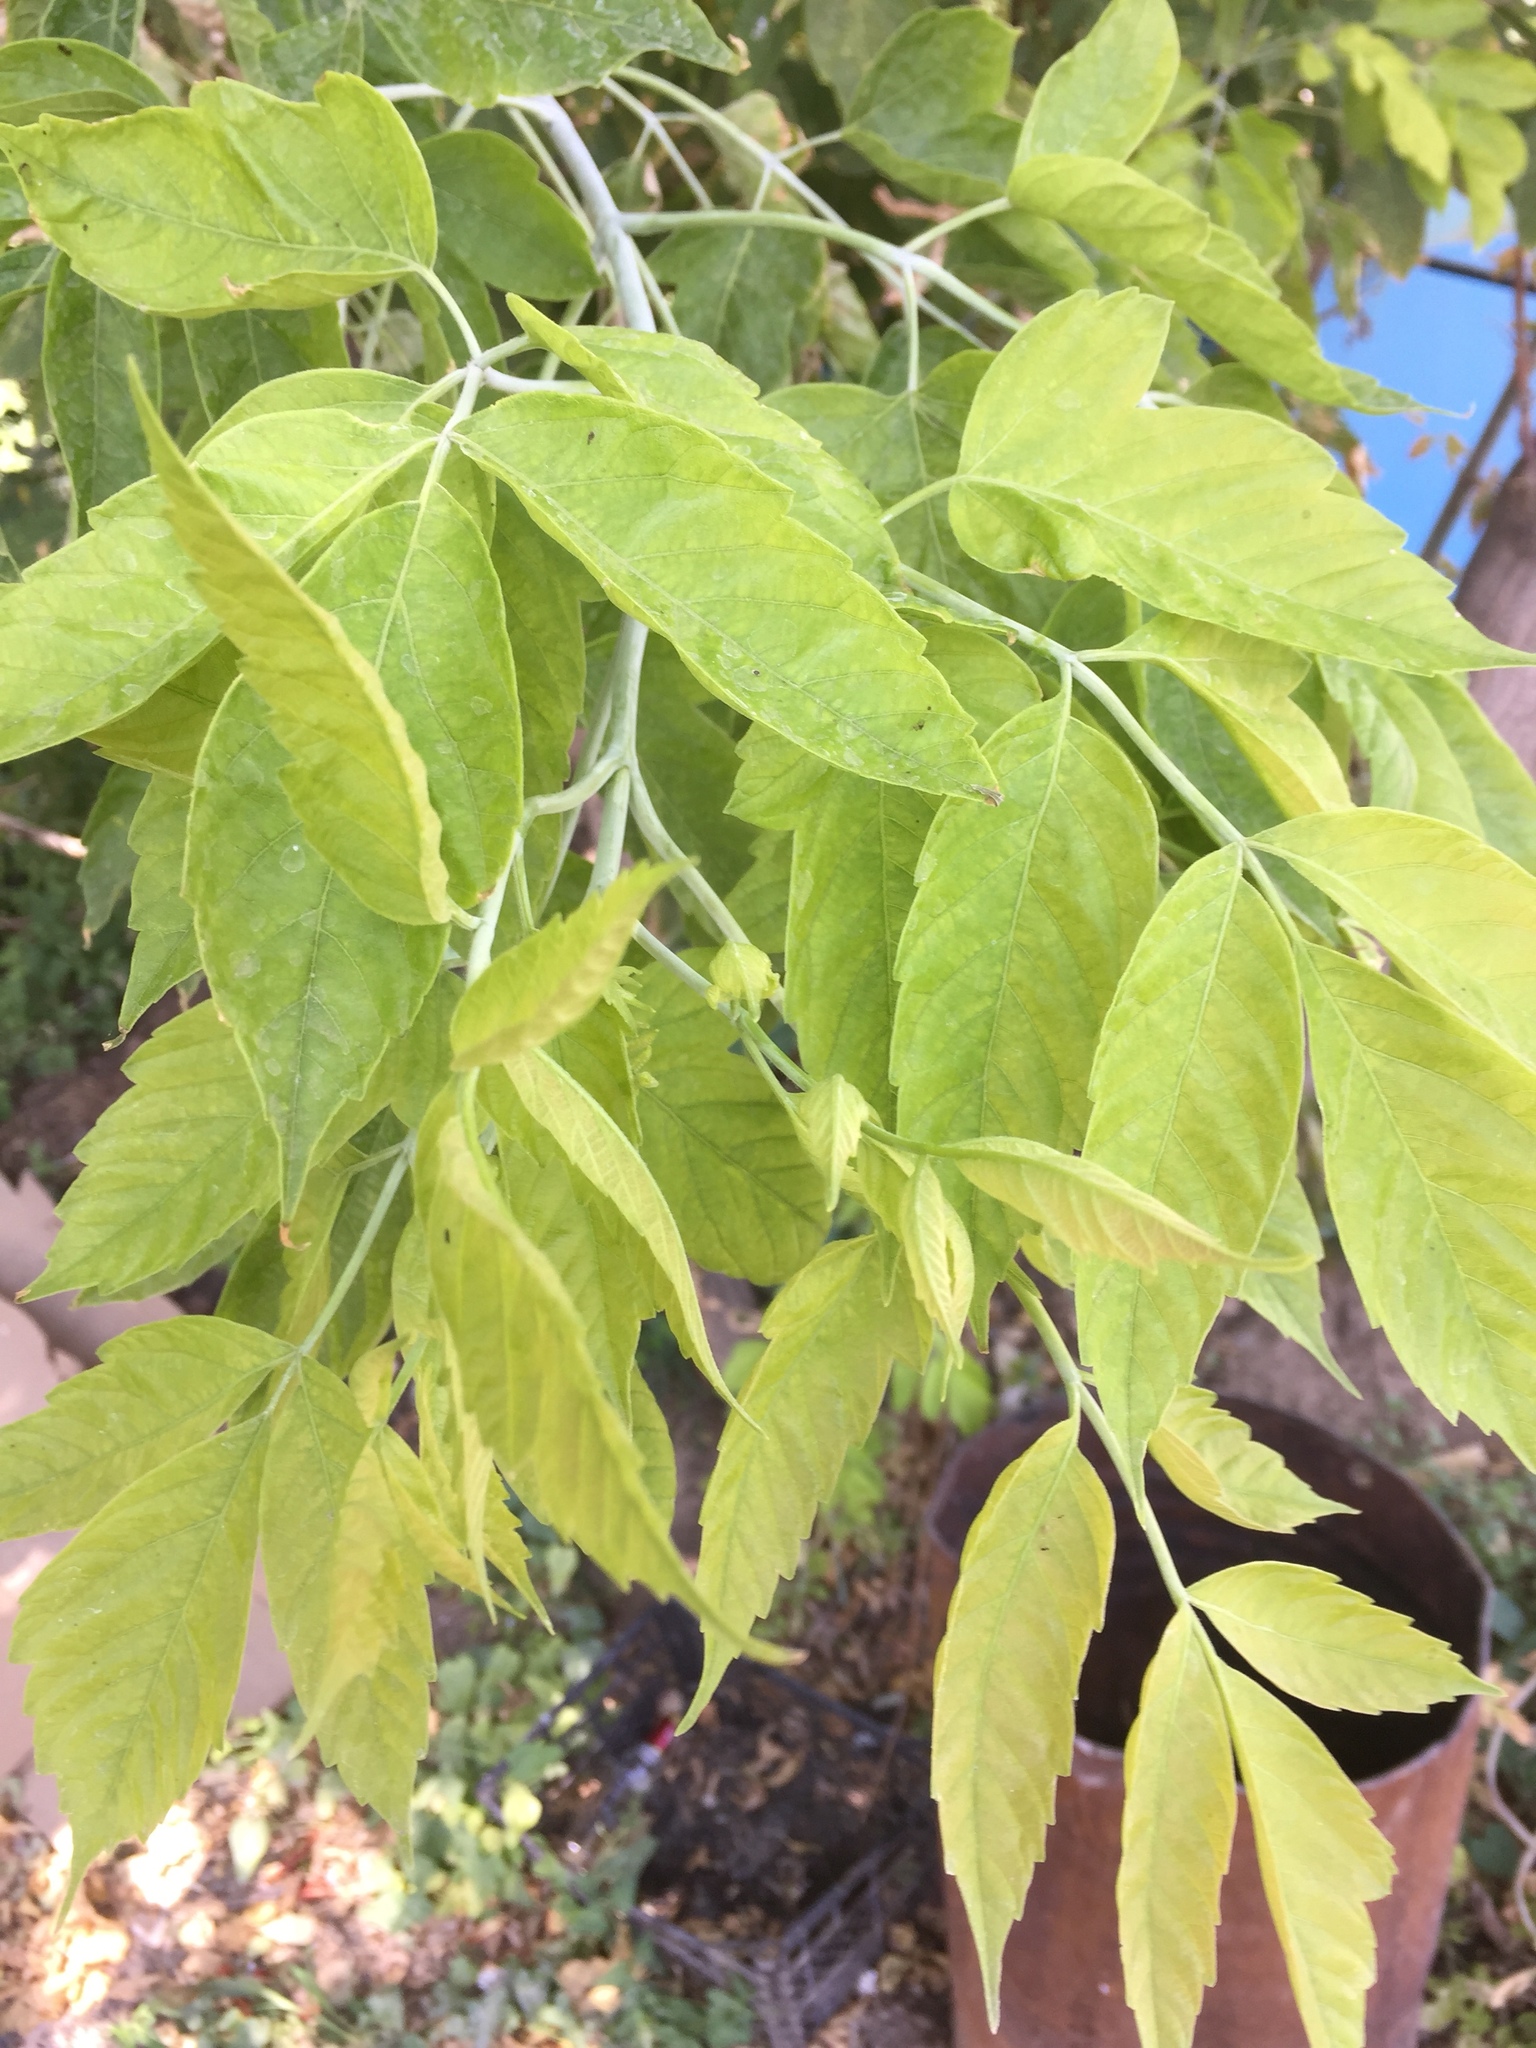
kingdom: Plantae
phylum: Tracheophyta
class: Magnoliopsida
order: Sapindales
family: Sapindaceae
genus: Acer
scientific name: Acer negundo
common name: Ashleaf maple
